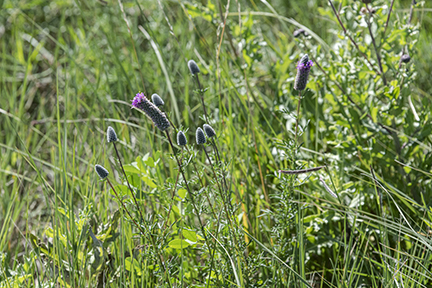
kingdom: Plantae
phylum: Tracheophyta
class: Magnoliopsida
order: Fabales
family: Fabaceae
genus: Dalea
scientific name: Dalea purpurea
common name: Purple prairie-clover
